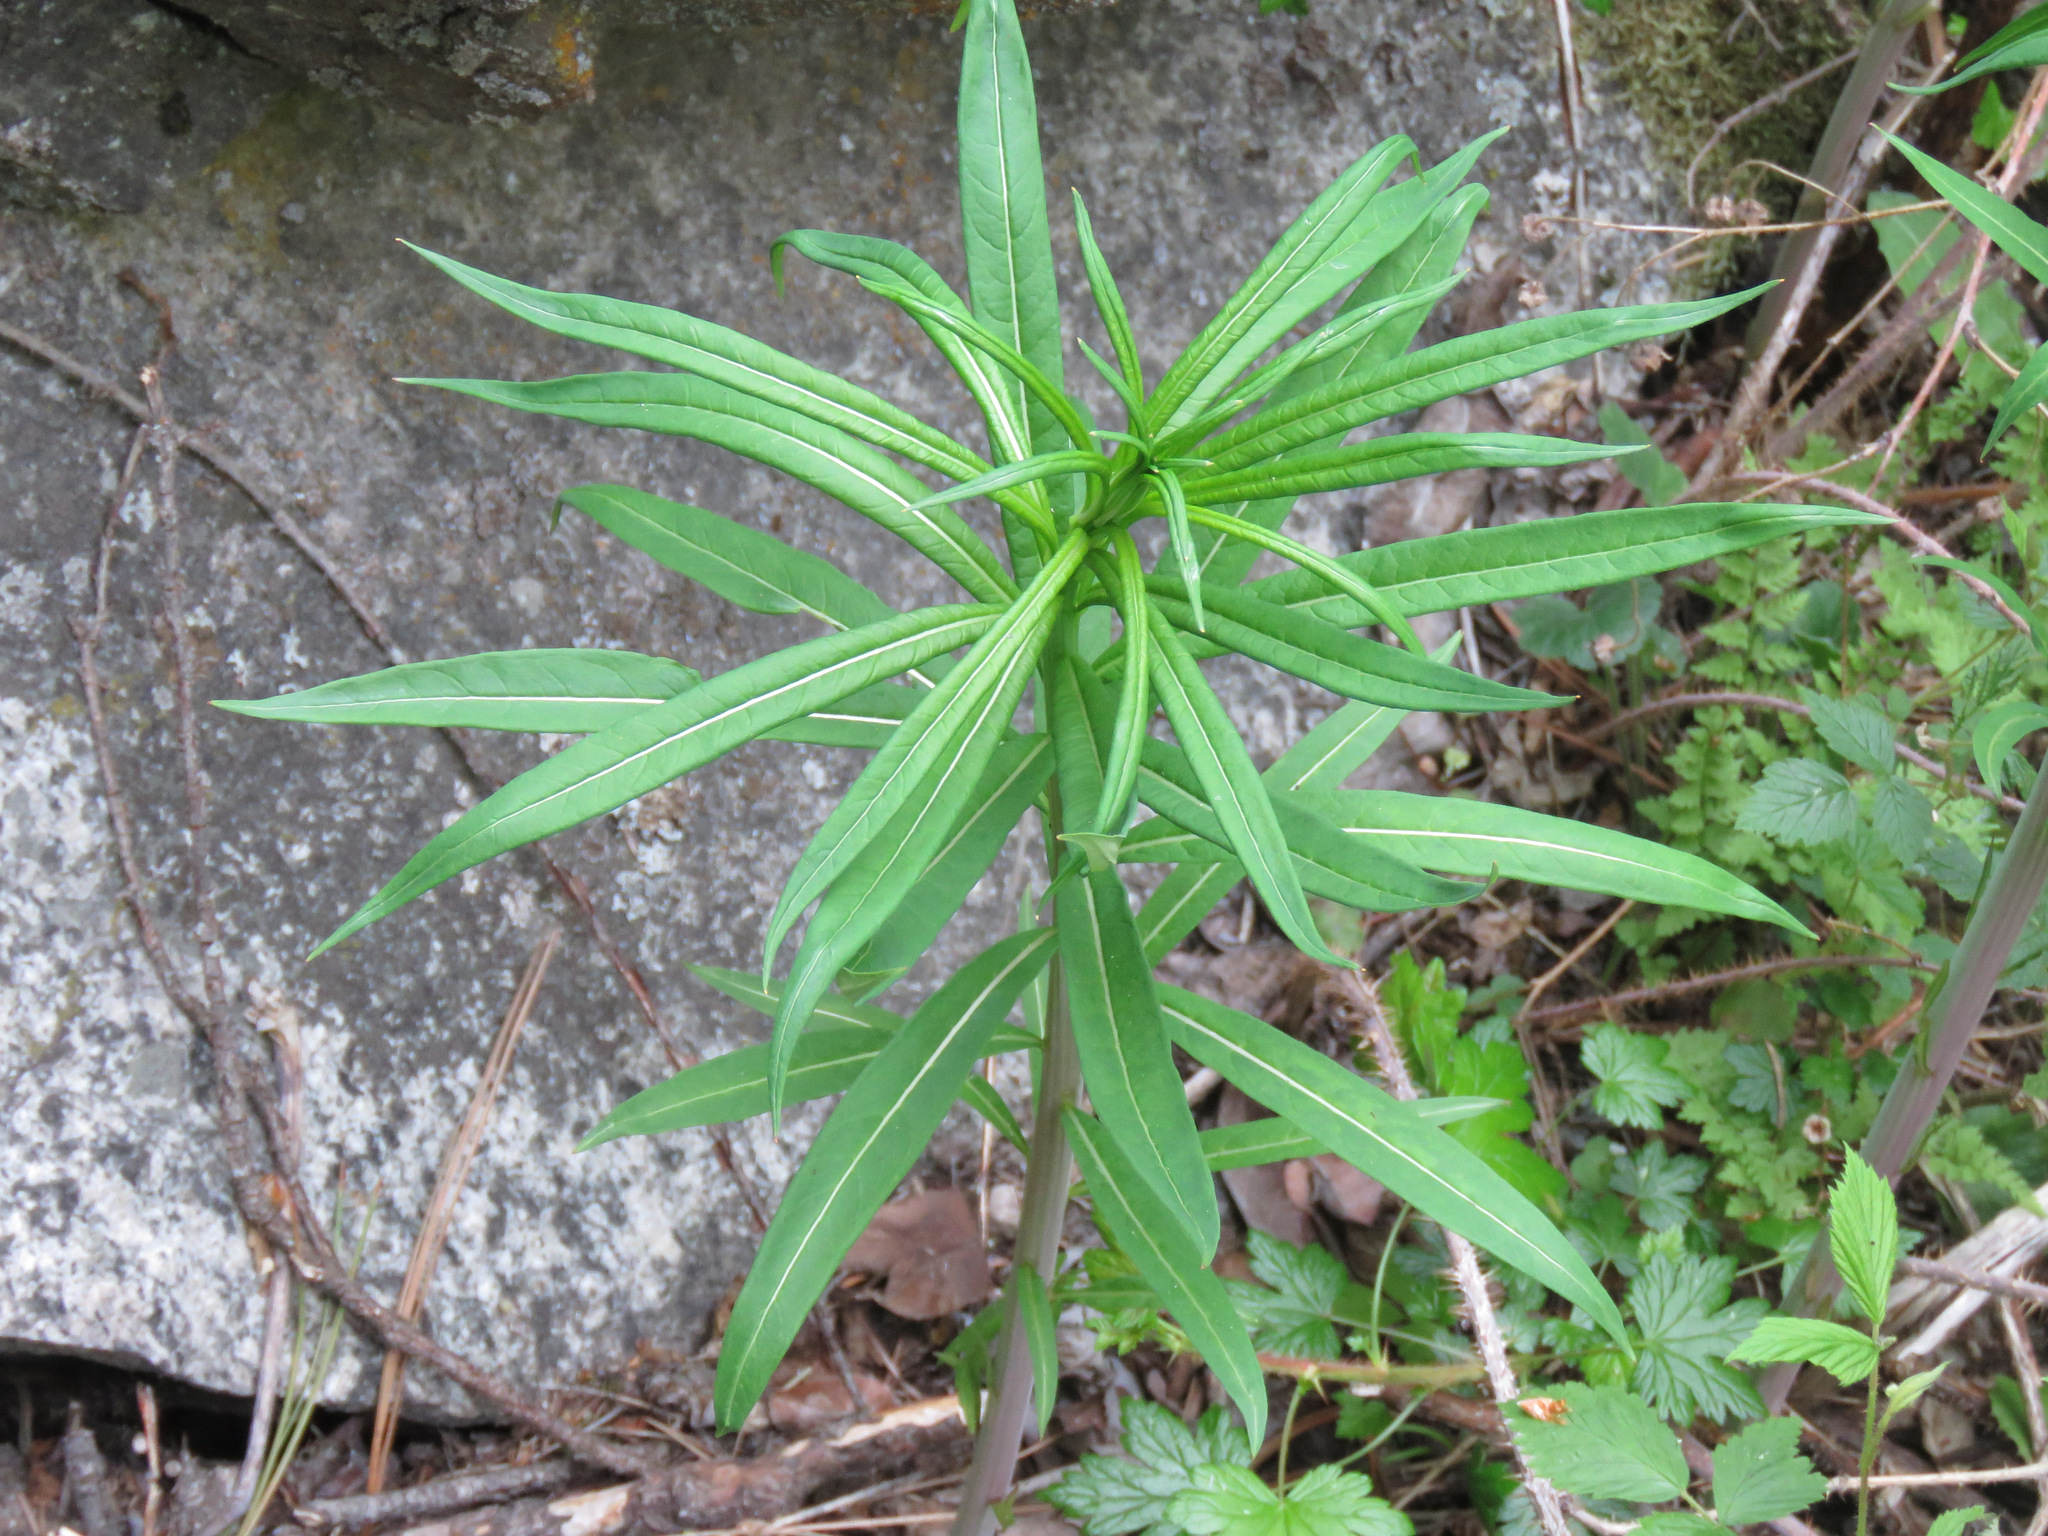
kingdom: Plantae
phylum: Tracheophyta
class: Magnoliopsida
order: Myrtales
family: Onagraceae
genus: Chamaenerion
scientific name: Chamaenerion angustifolium
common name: Fireweed
